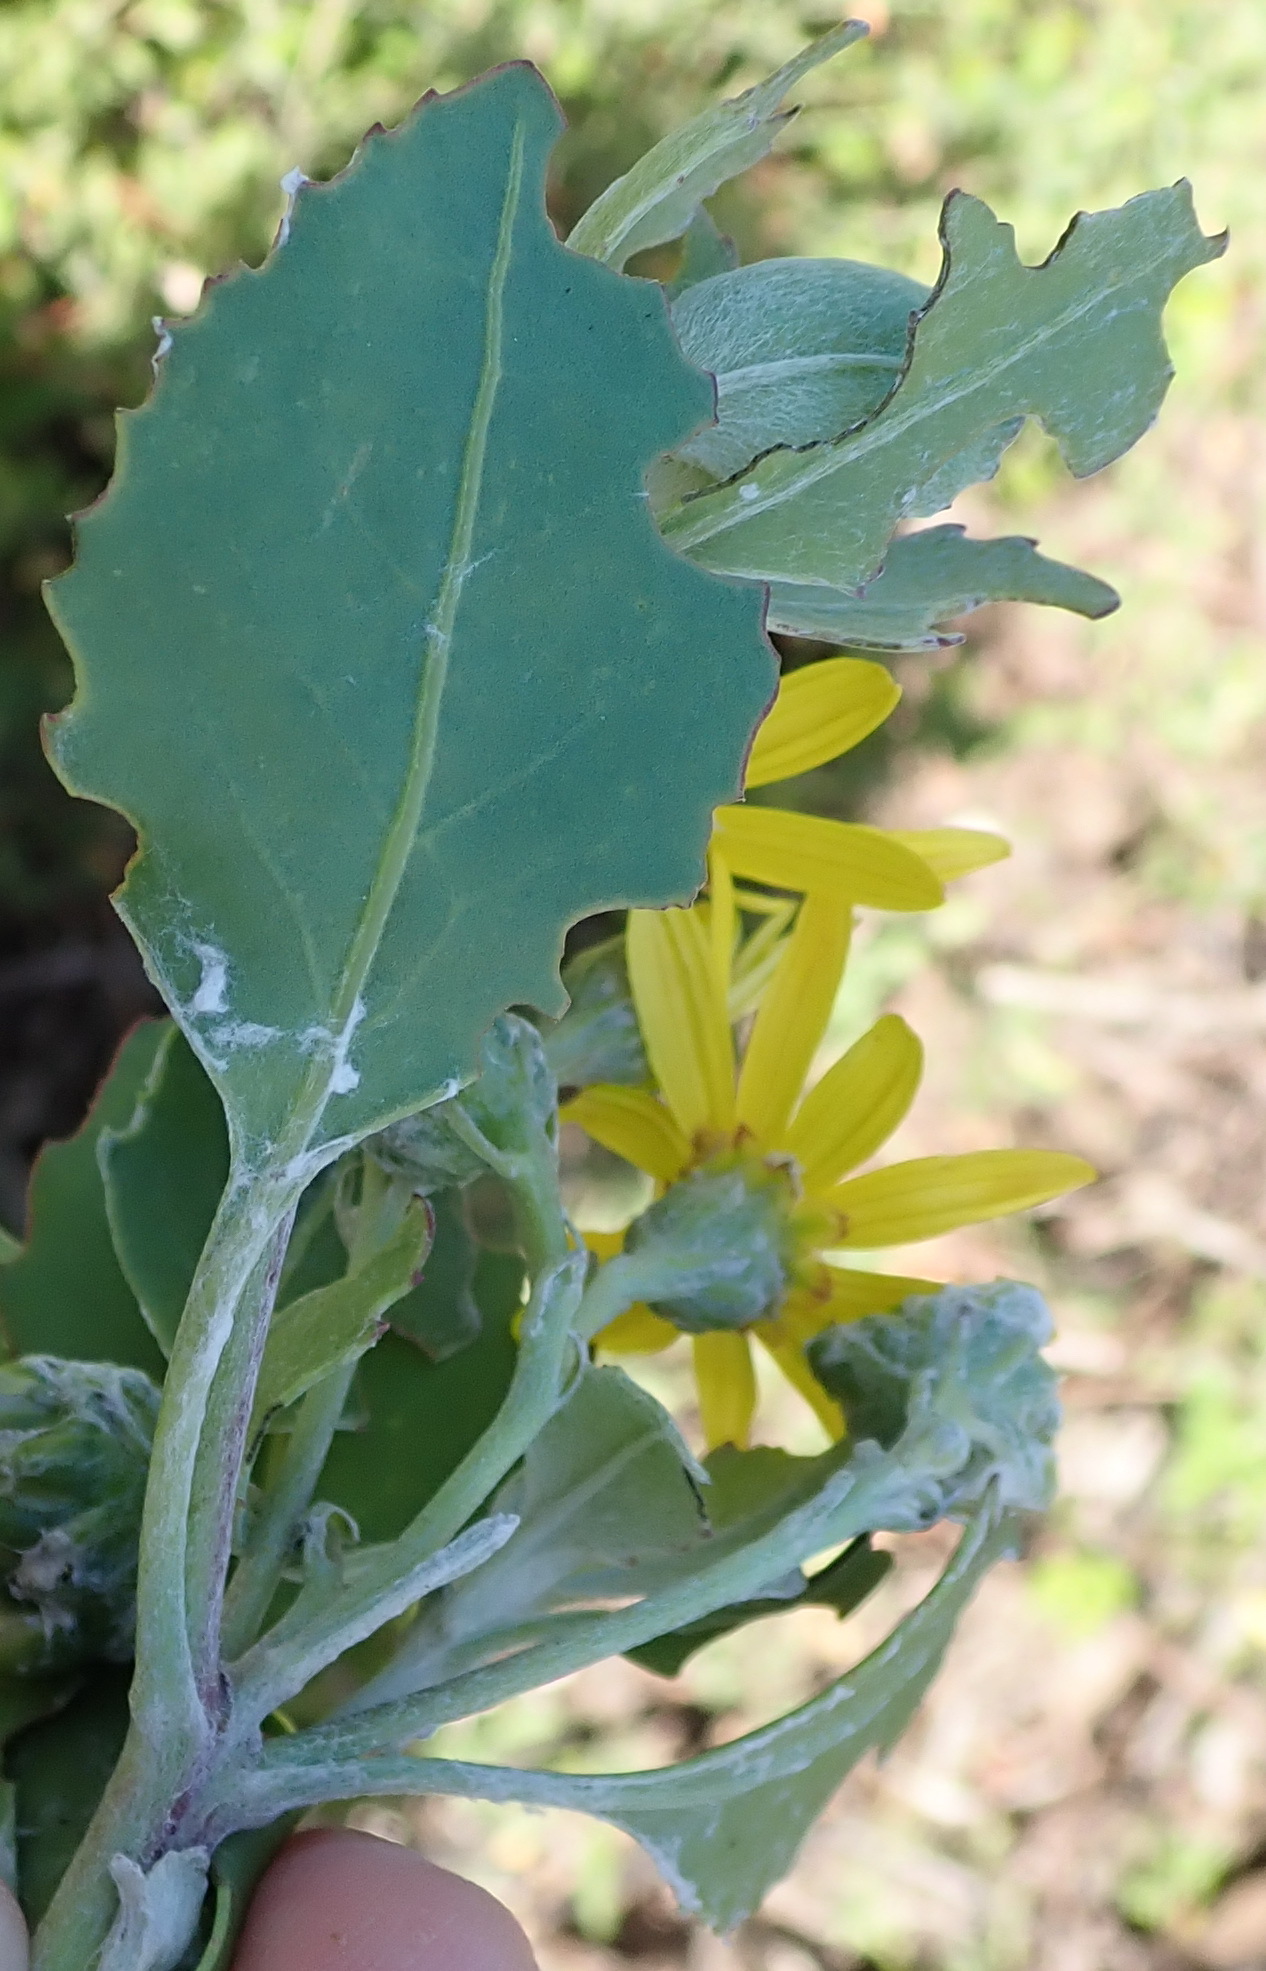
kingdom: Plantae
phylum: Tracheophyta
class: Magnoliopsida
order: Asterales
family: Asteraceae
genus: Osteospermum
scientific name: Osteospermum moniliferum
